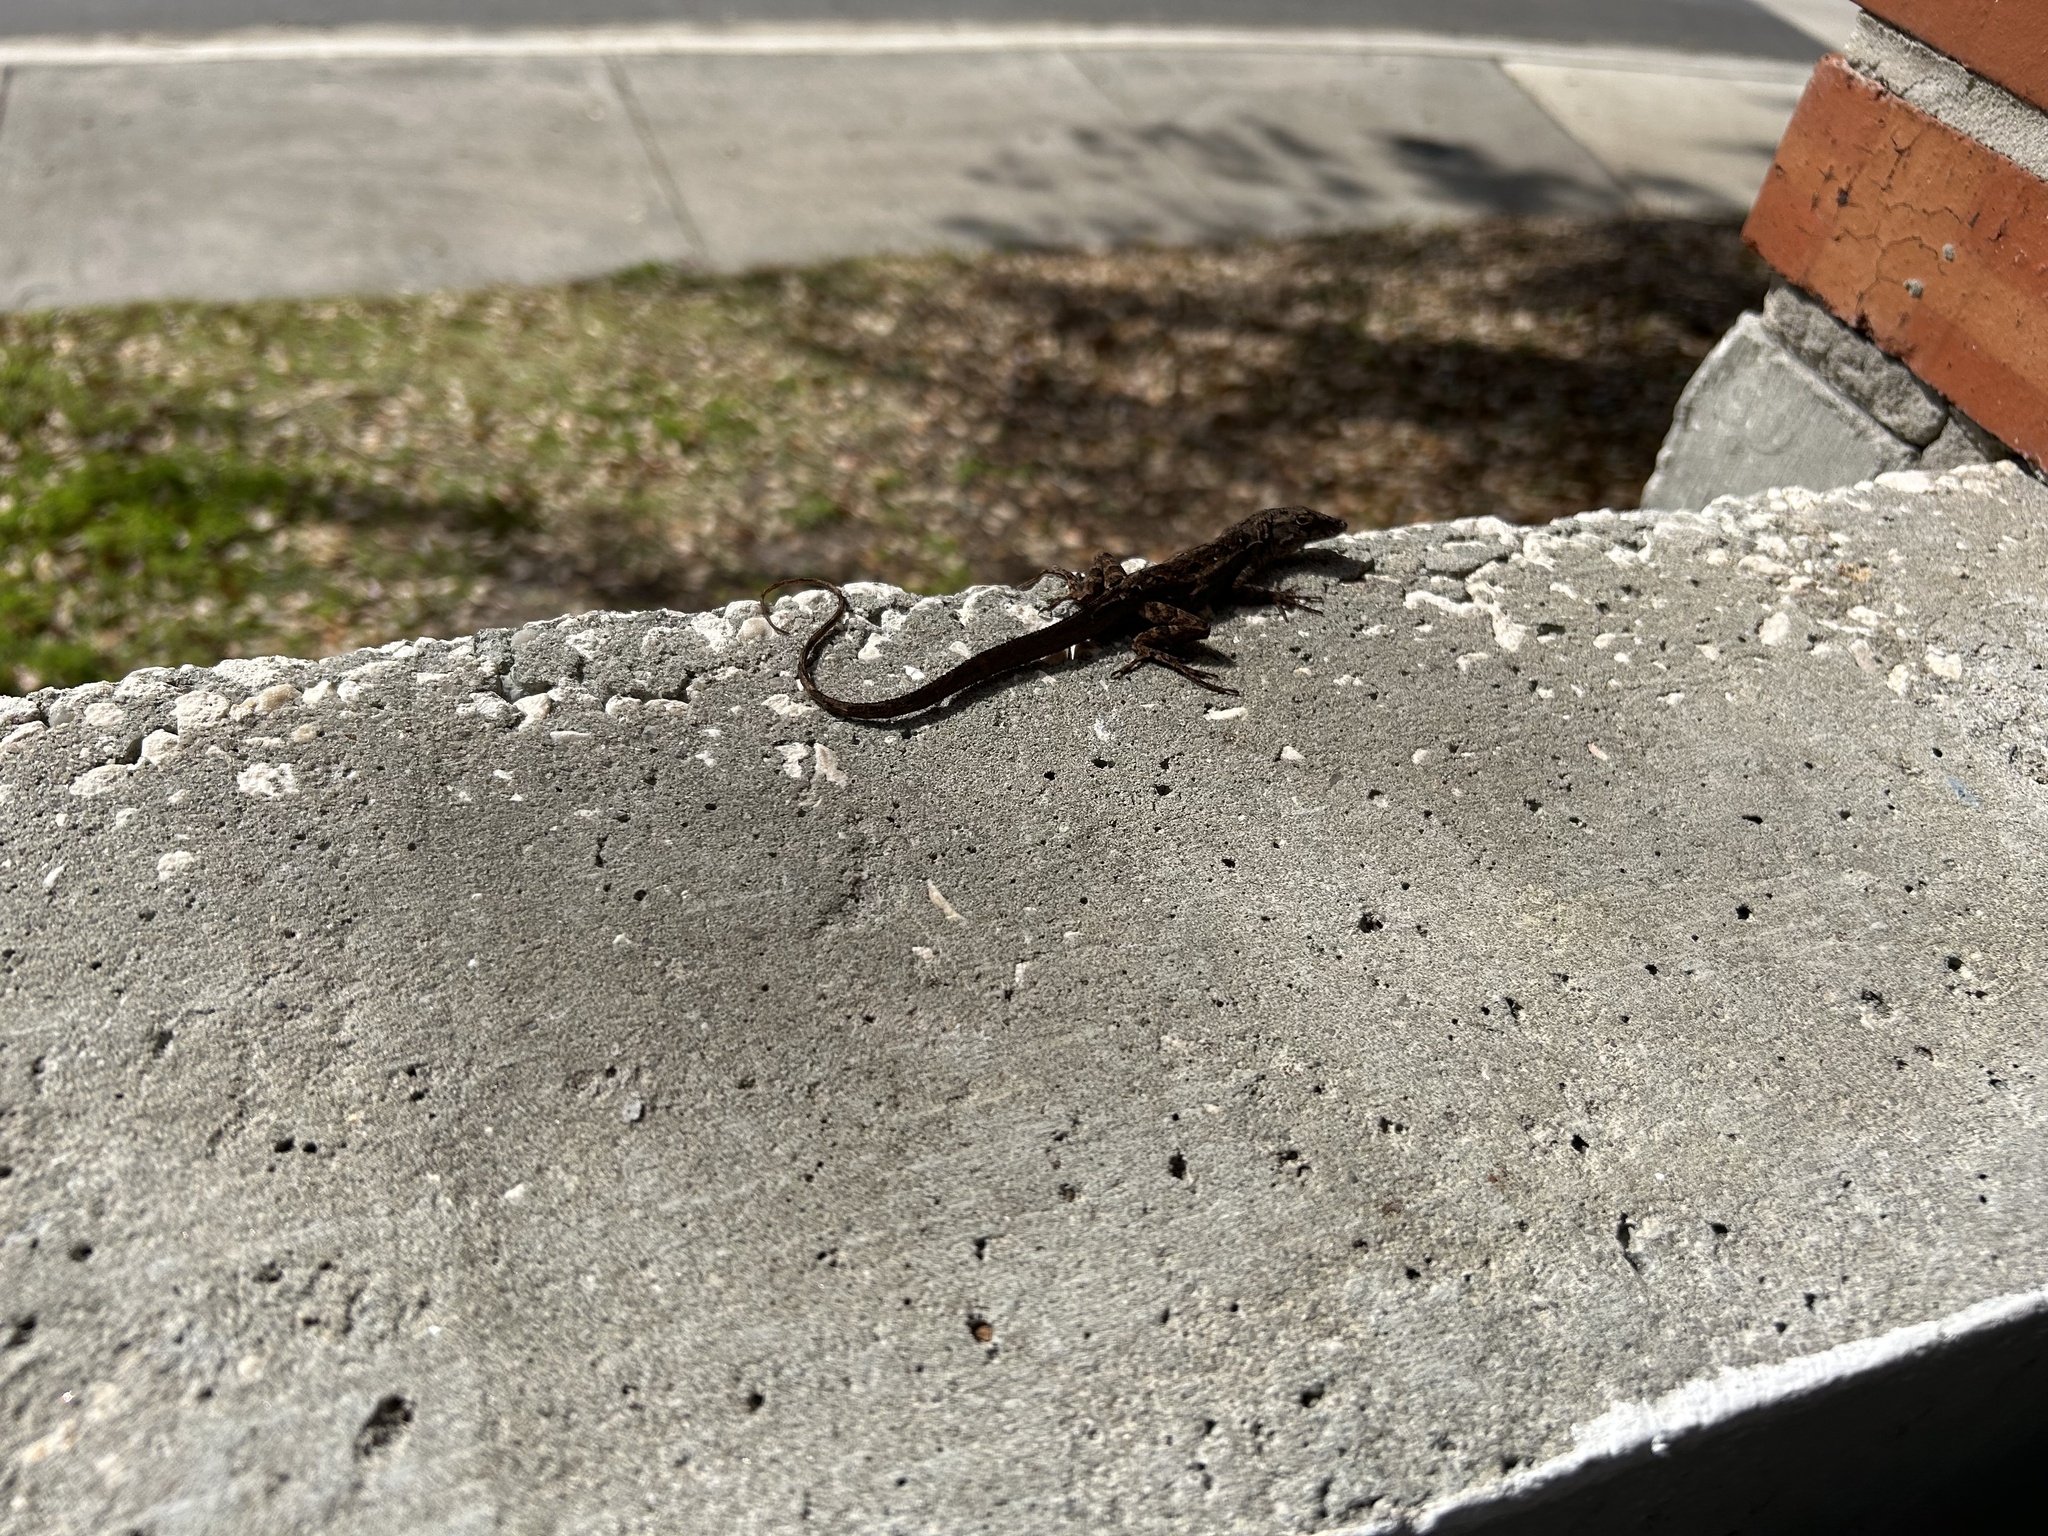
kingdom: Animalia
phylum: Chordata
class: Squamata
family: Dactyloidae
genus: Anolis
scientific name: Anolis sagrei
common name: Brown anole
